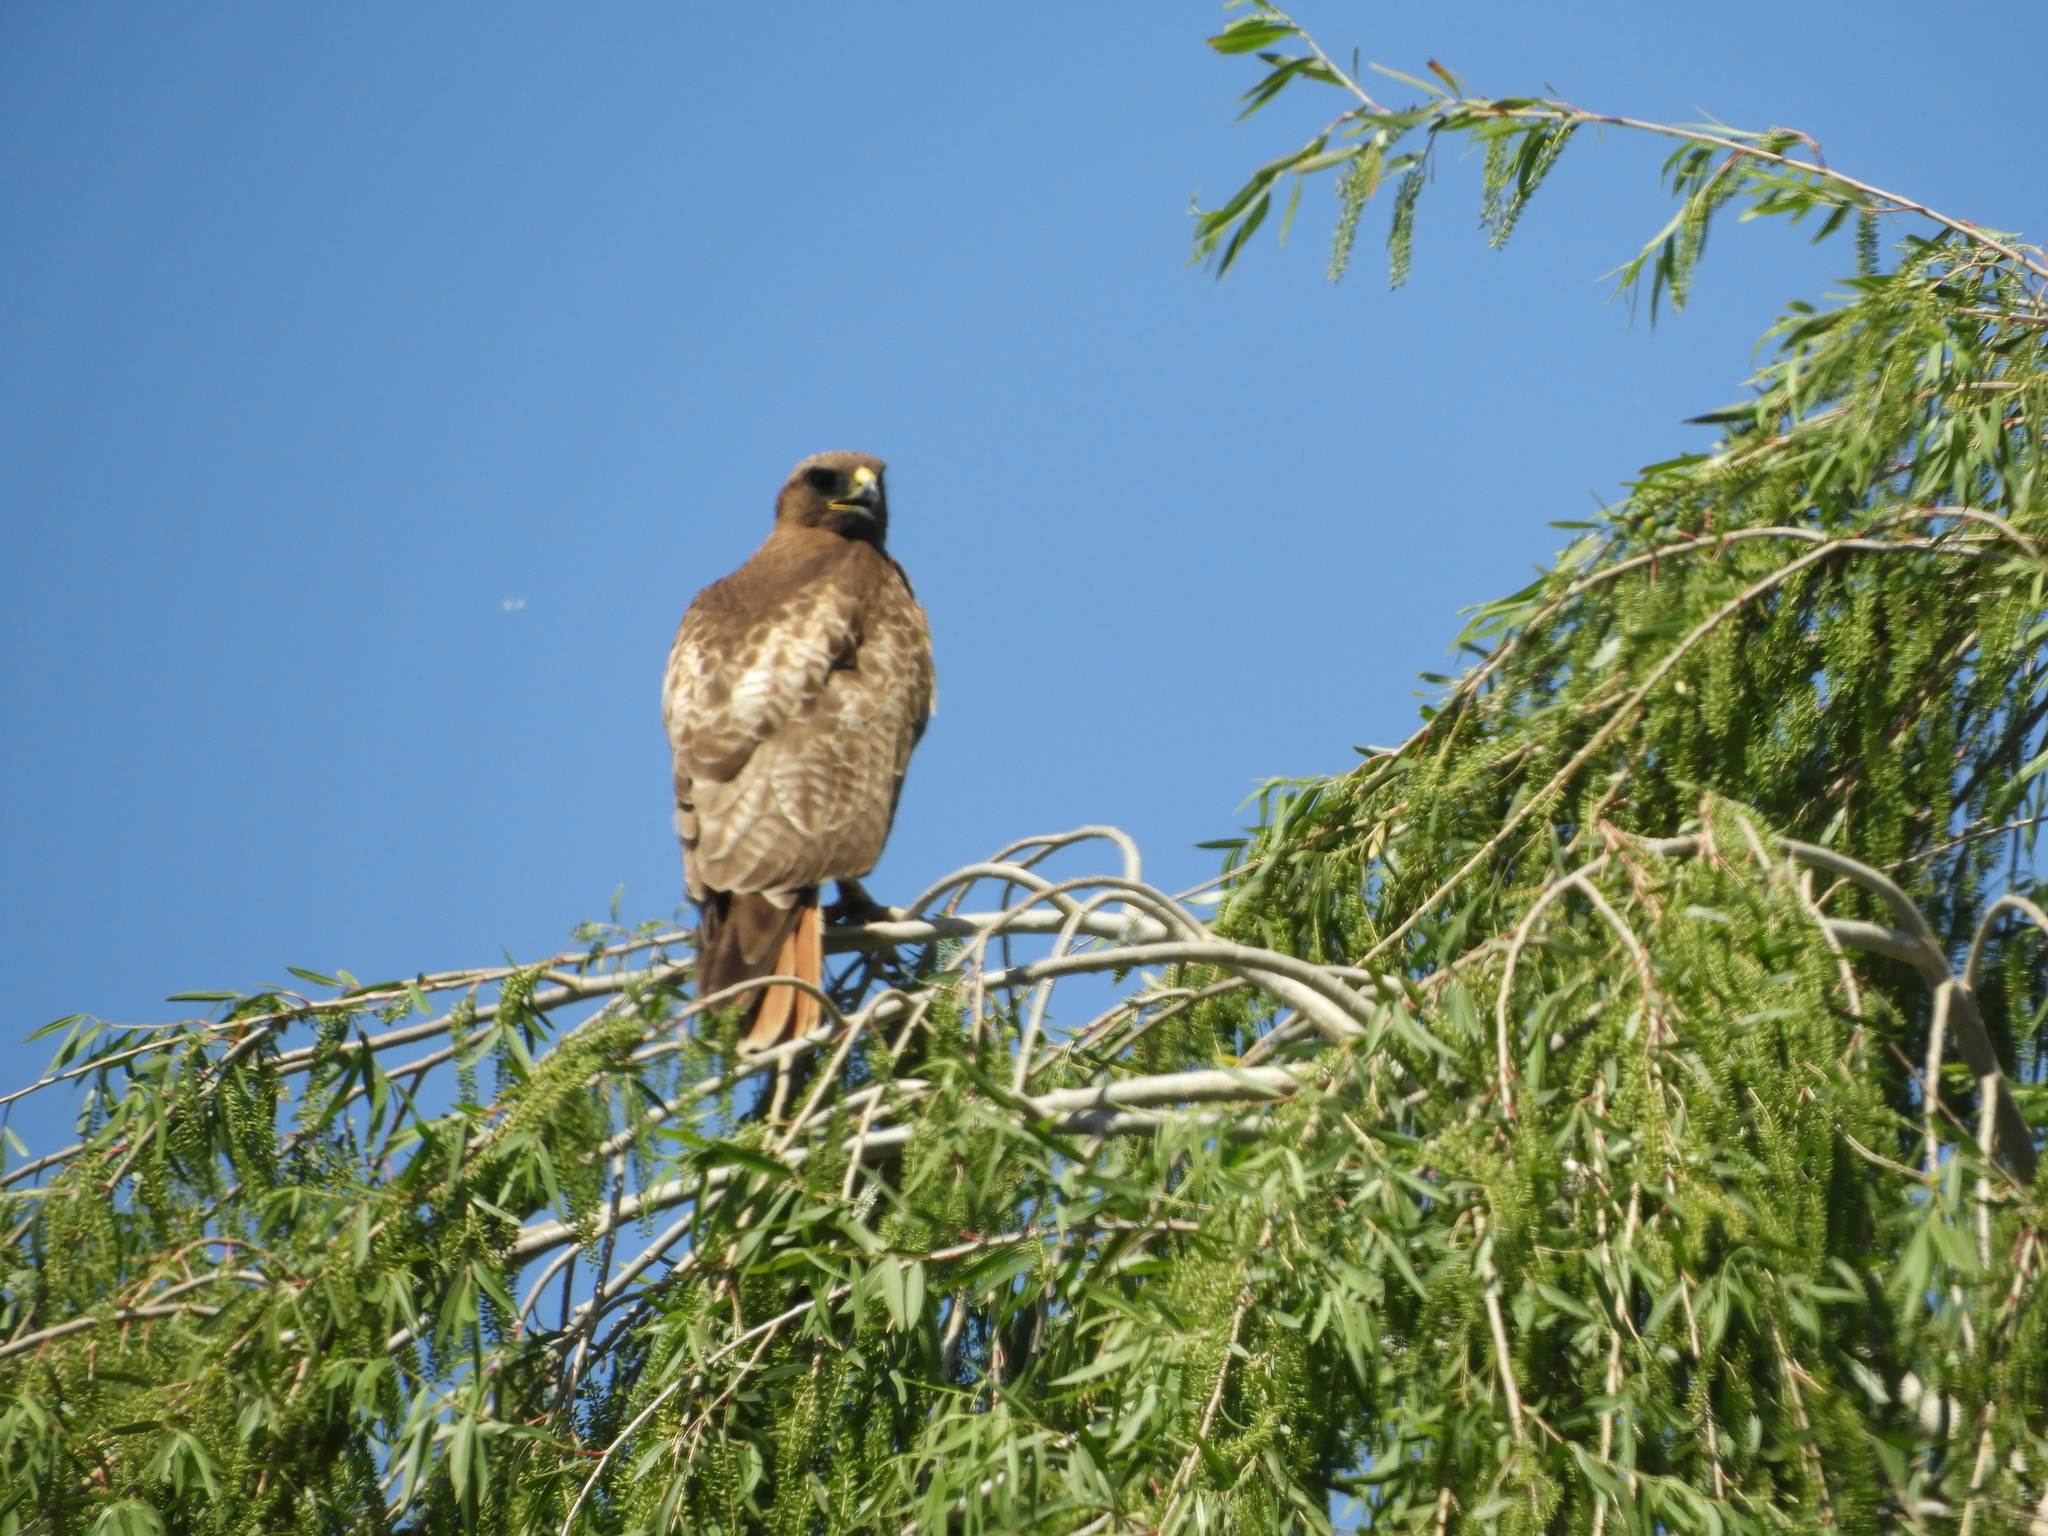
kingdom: Animalia
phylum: Chordata
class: Aves
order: Accipitriformes
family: Accipitridae
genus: Buteo
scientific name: Buteo jamaicensis
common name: Red-tailed hawk
